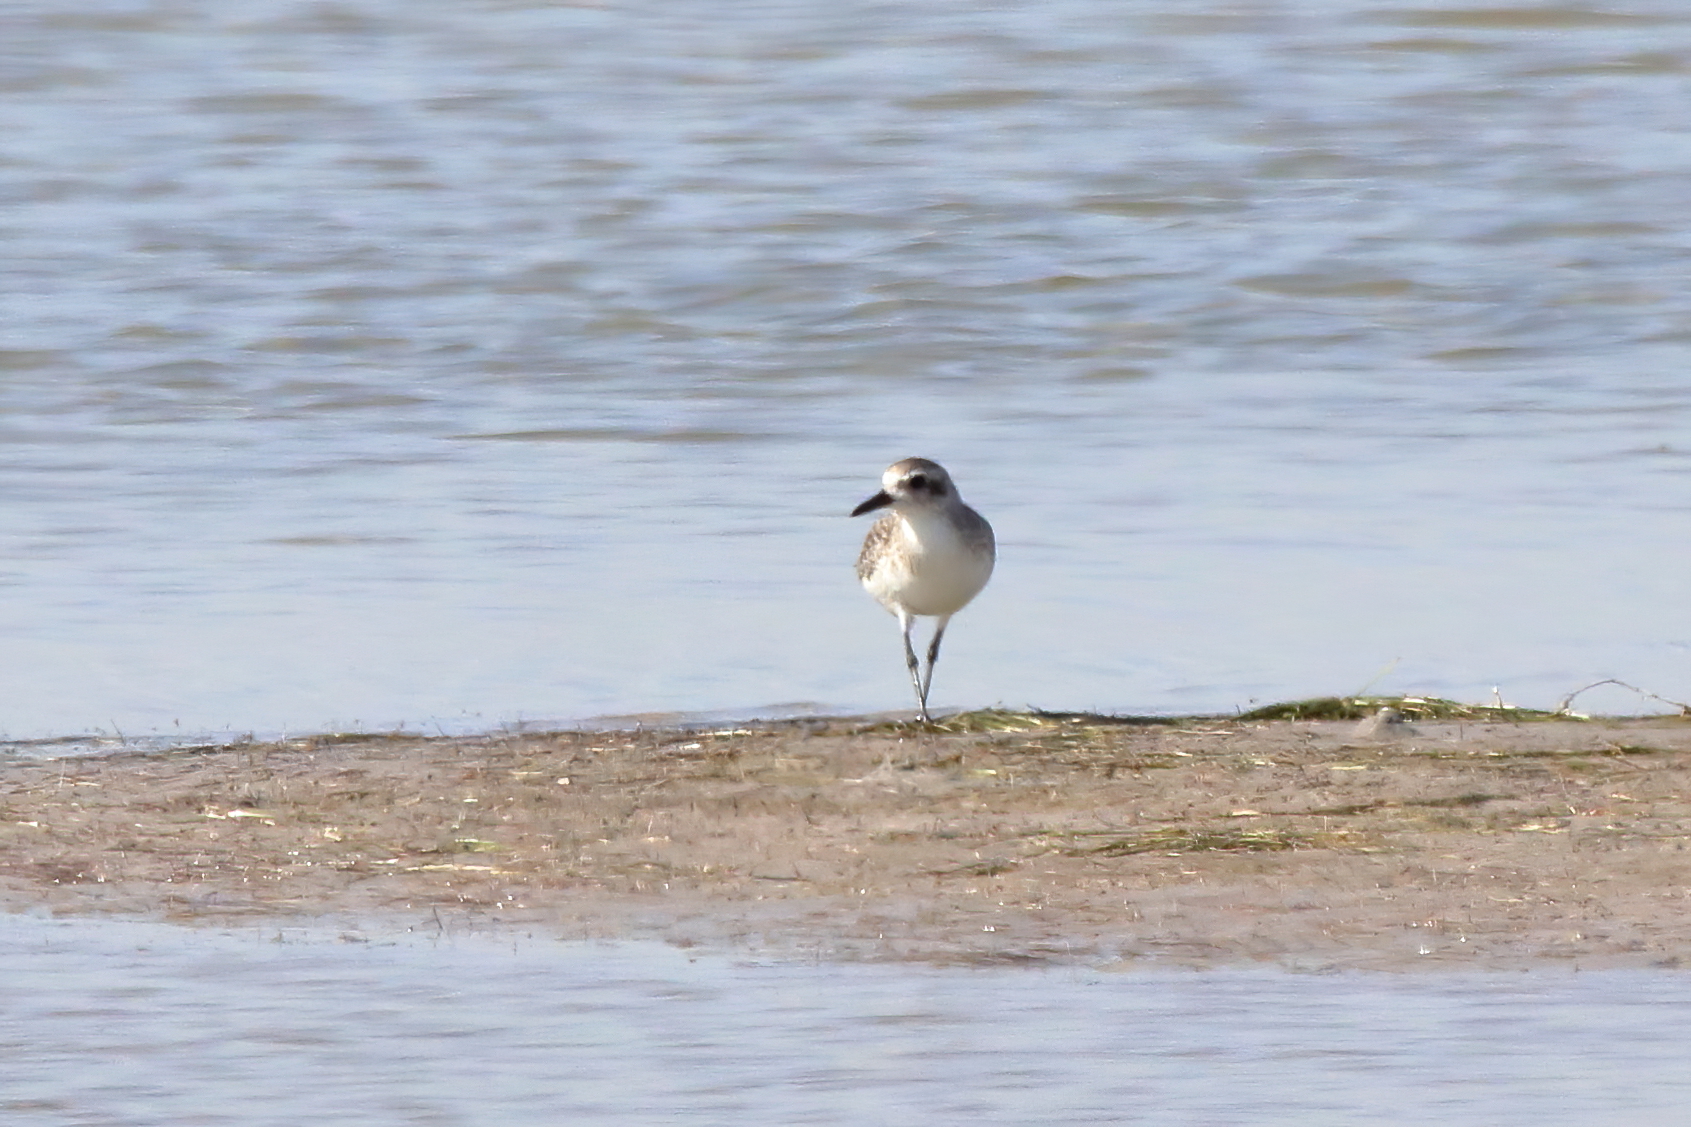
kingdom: Animalia
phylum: Chordata
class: Aves
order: Charadriiformes
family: Charadriidae
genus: Pluvialis
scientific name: Pluvialis squatarola
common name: Grey plover
